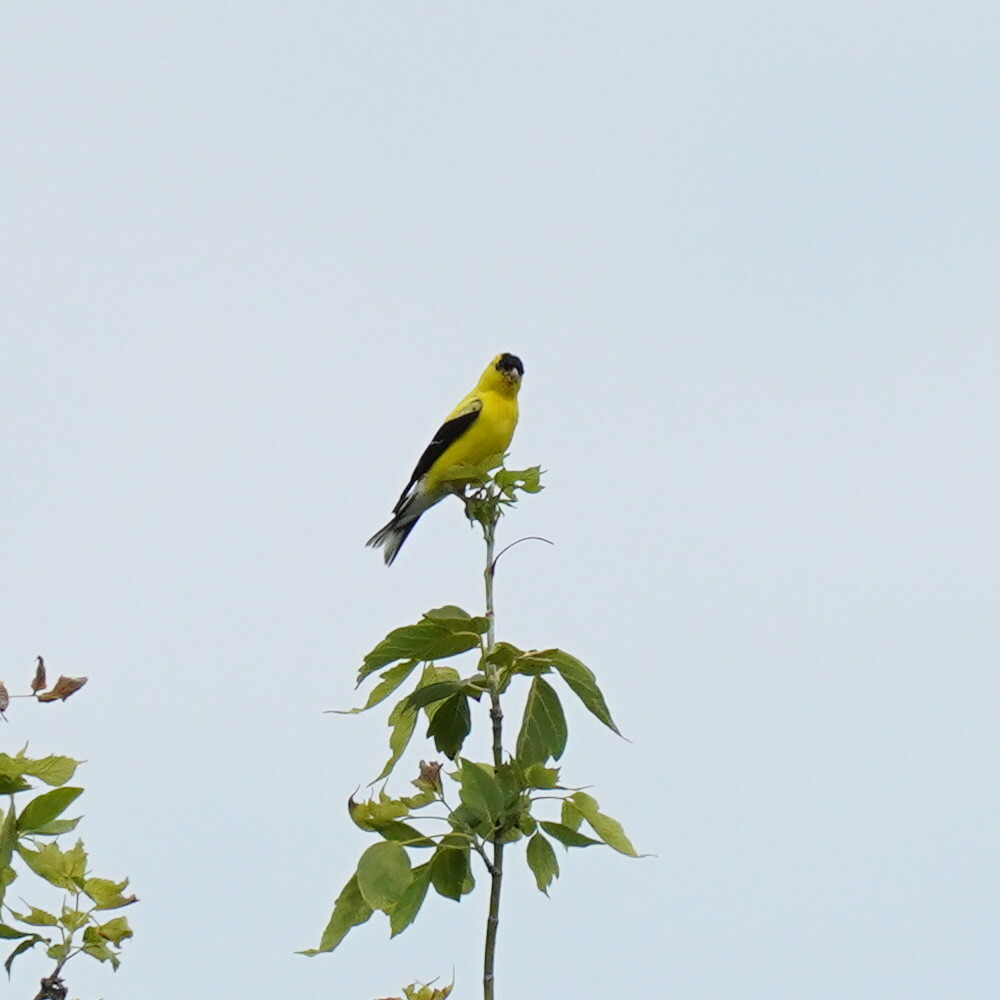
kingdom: Animalia
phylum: Chordata
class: Aves
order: Passeriformes
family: Fringillidae
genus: Spinus
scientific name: Spinus tristis
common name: American goldfinch
